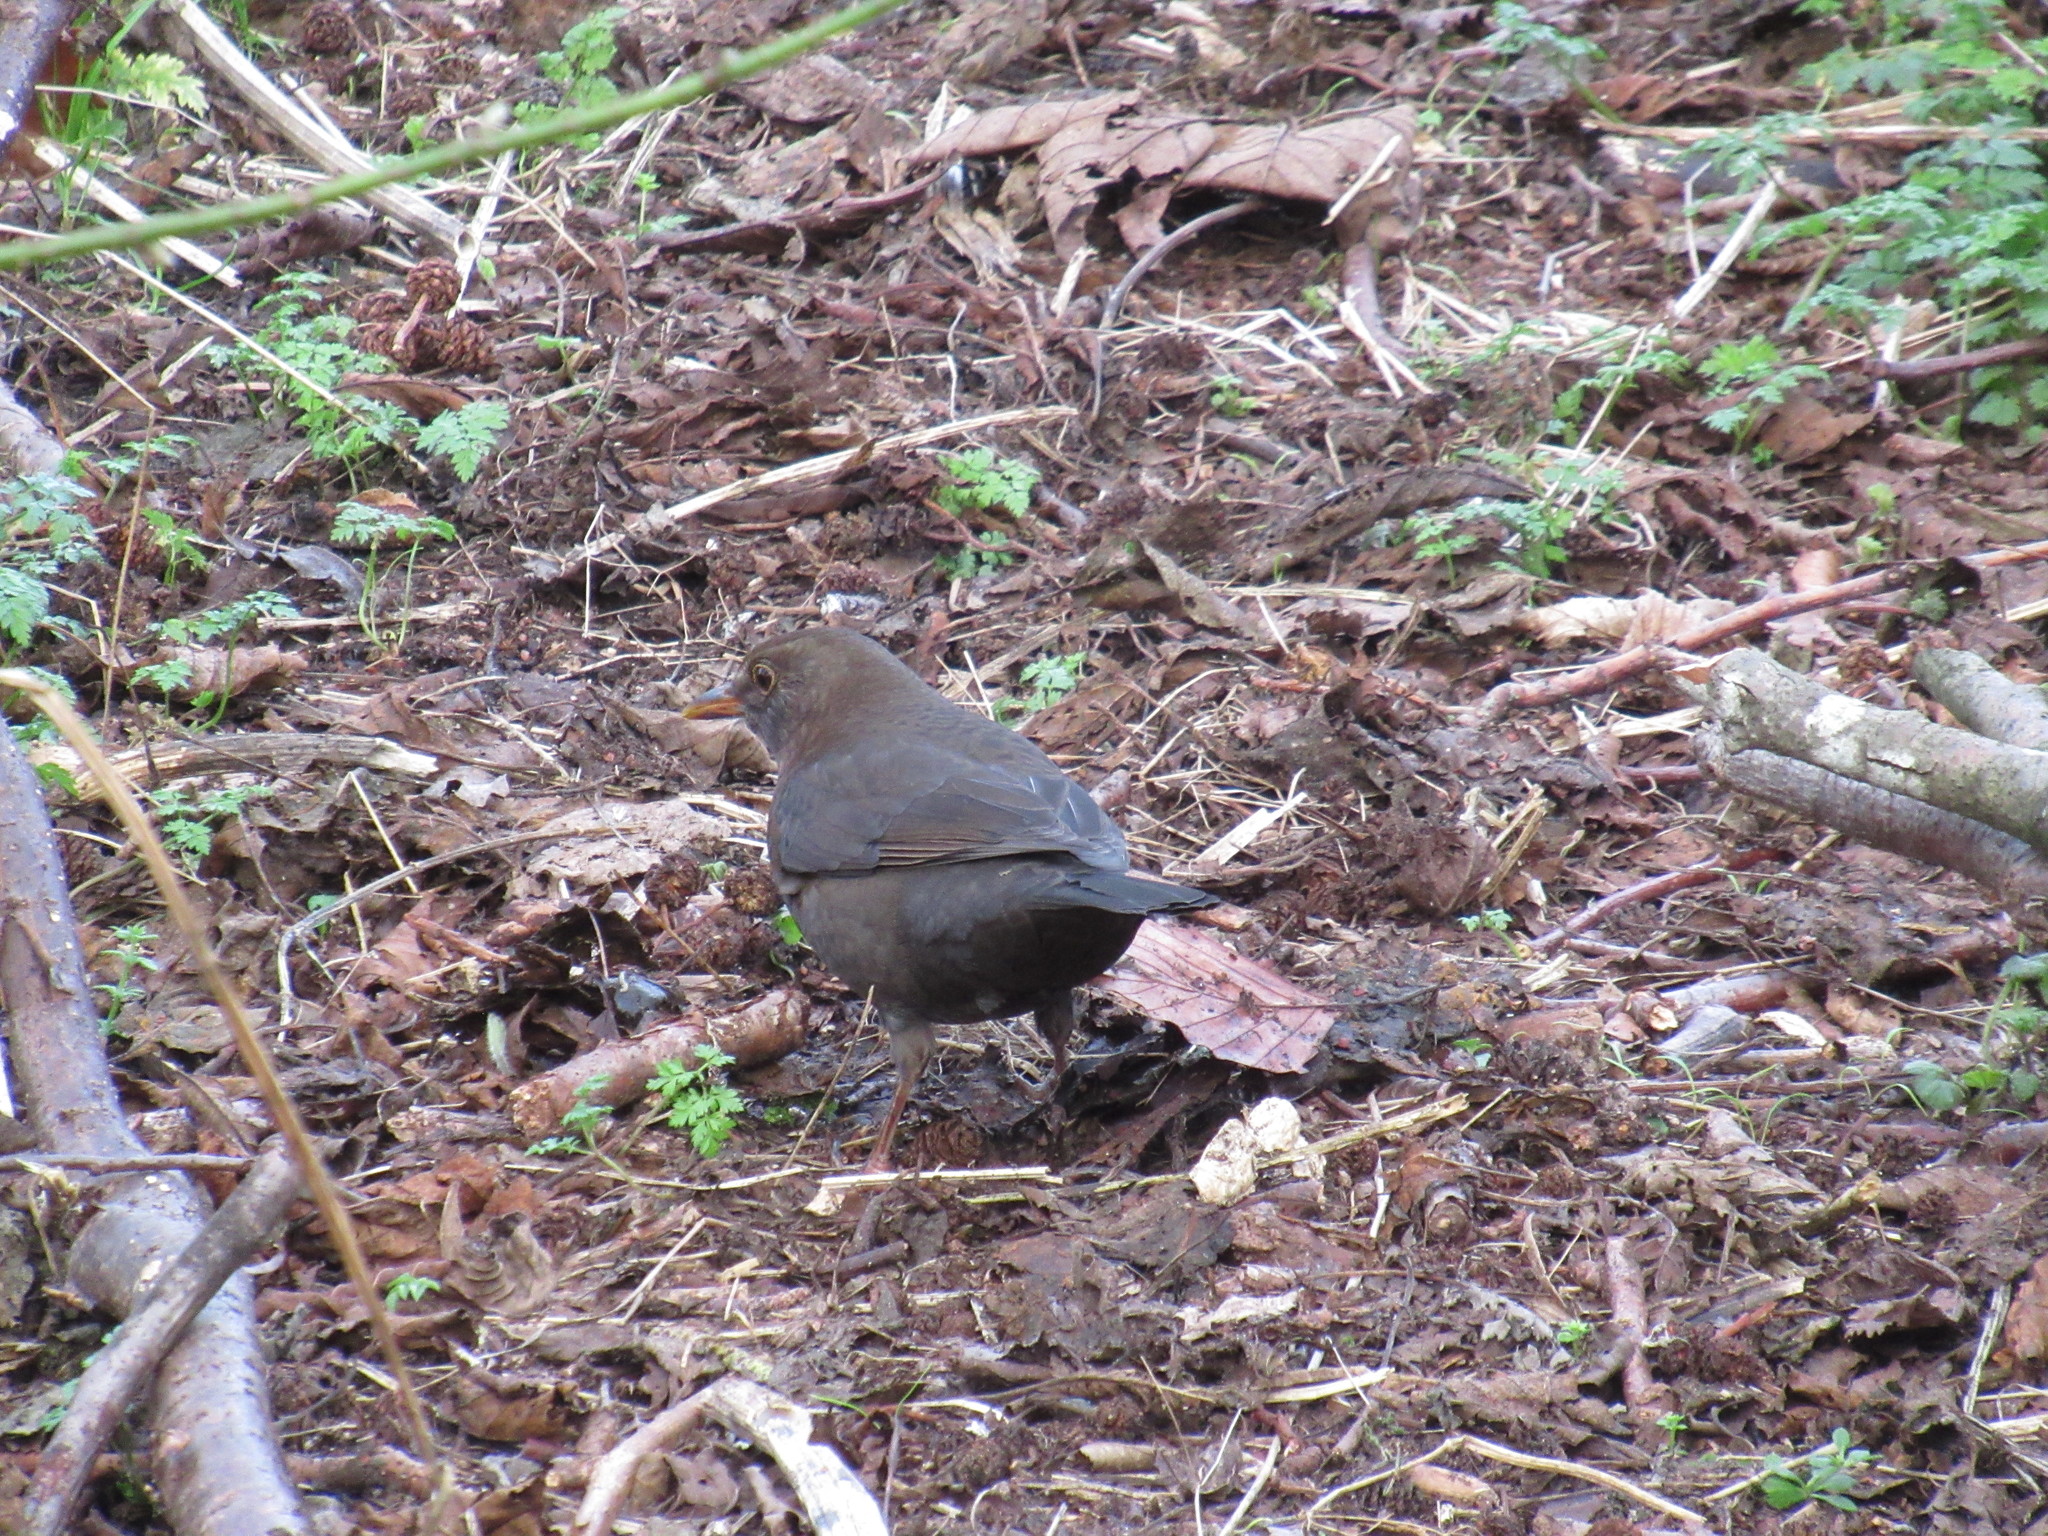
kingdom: Animalia
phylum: Chordata
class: Aves
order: Passeriformes
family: Turdidae
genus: Turdus
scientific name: Turdus merula
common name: Common blackbird
